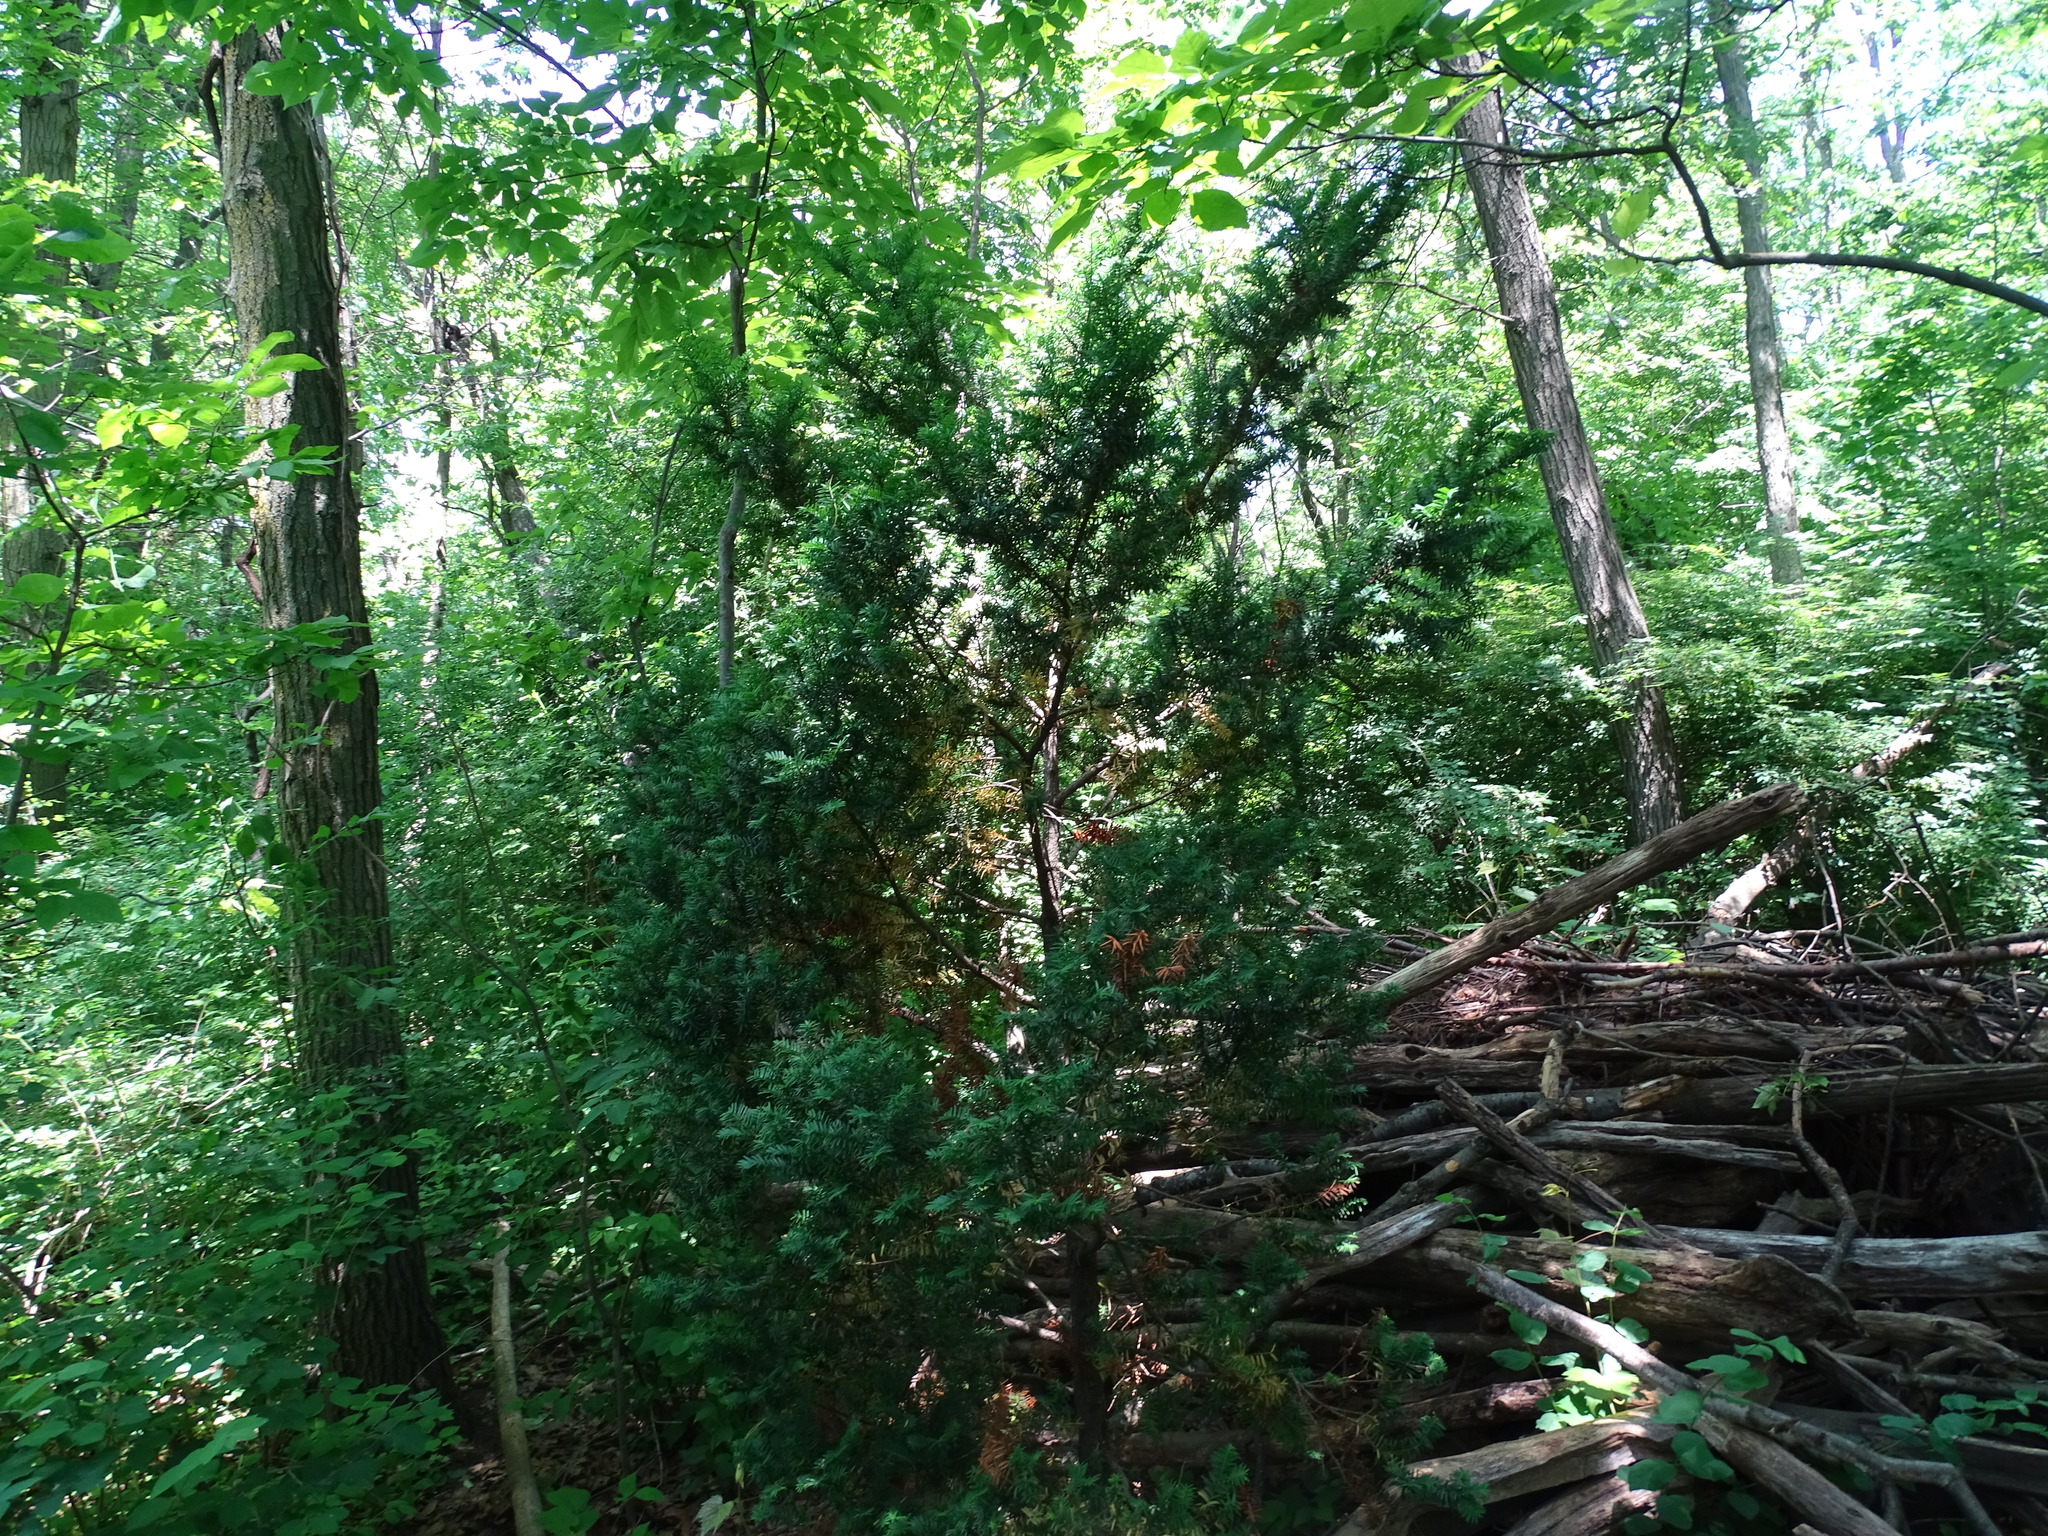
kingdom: Plantae
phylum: Tracheophyta
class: Pinopsida
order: Pinales
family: Taxaceae
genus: Taxus
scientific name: Taxus cuspidata
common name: Japanese yew
